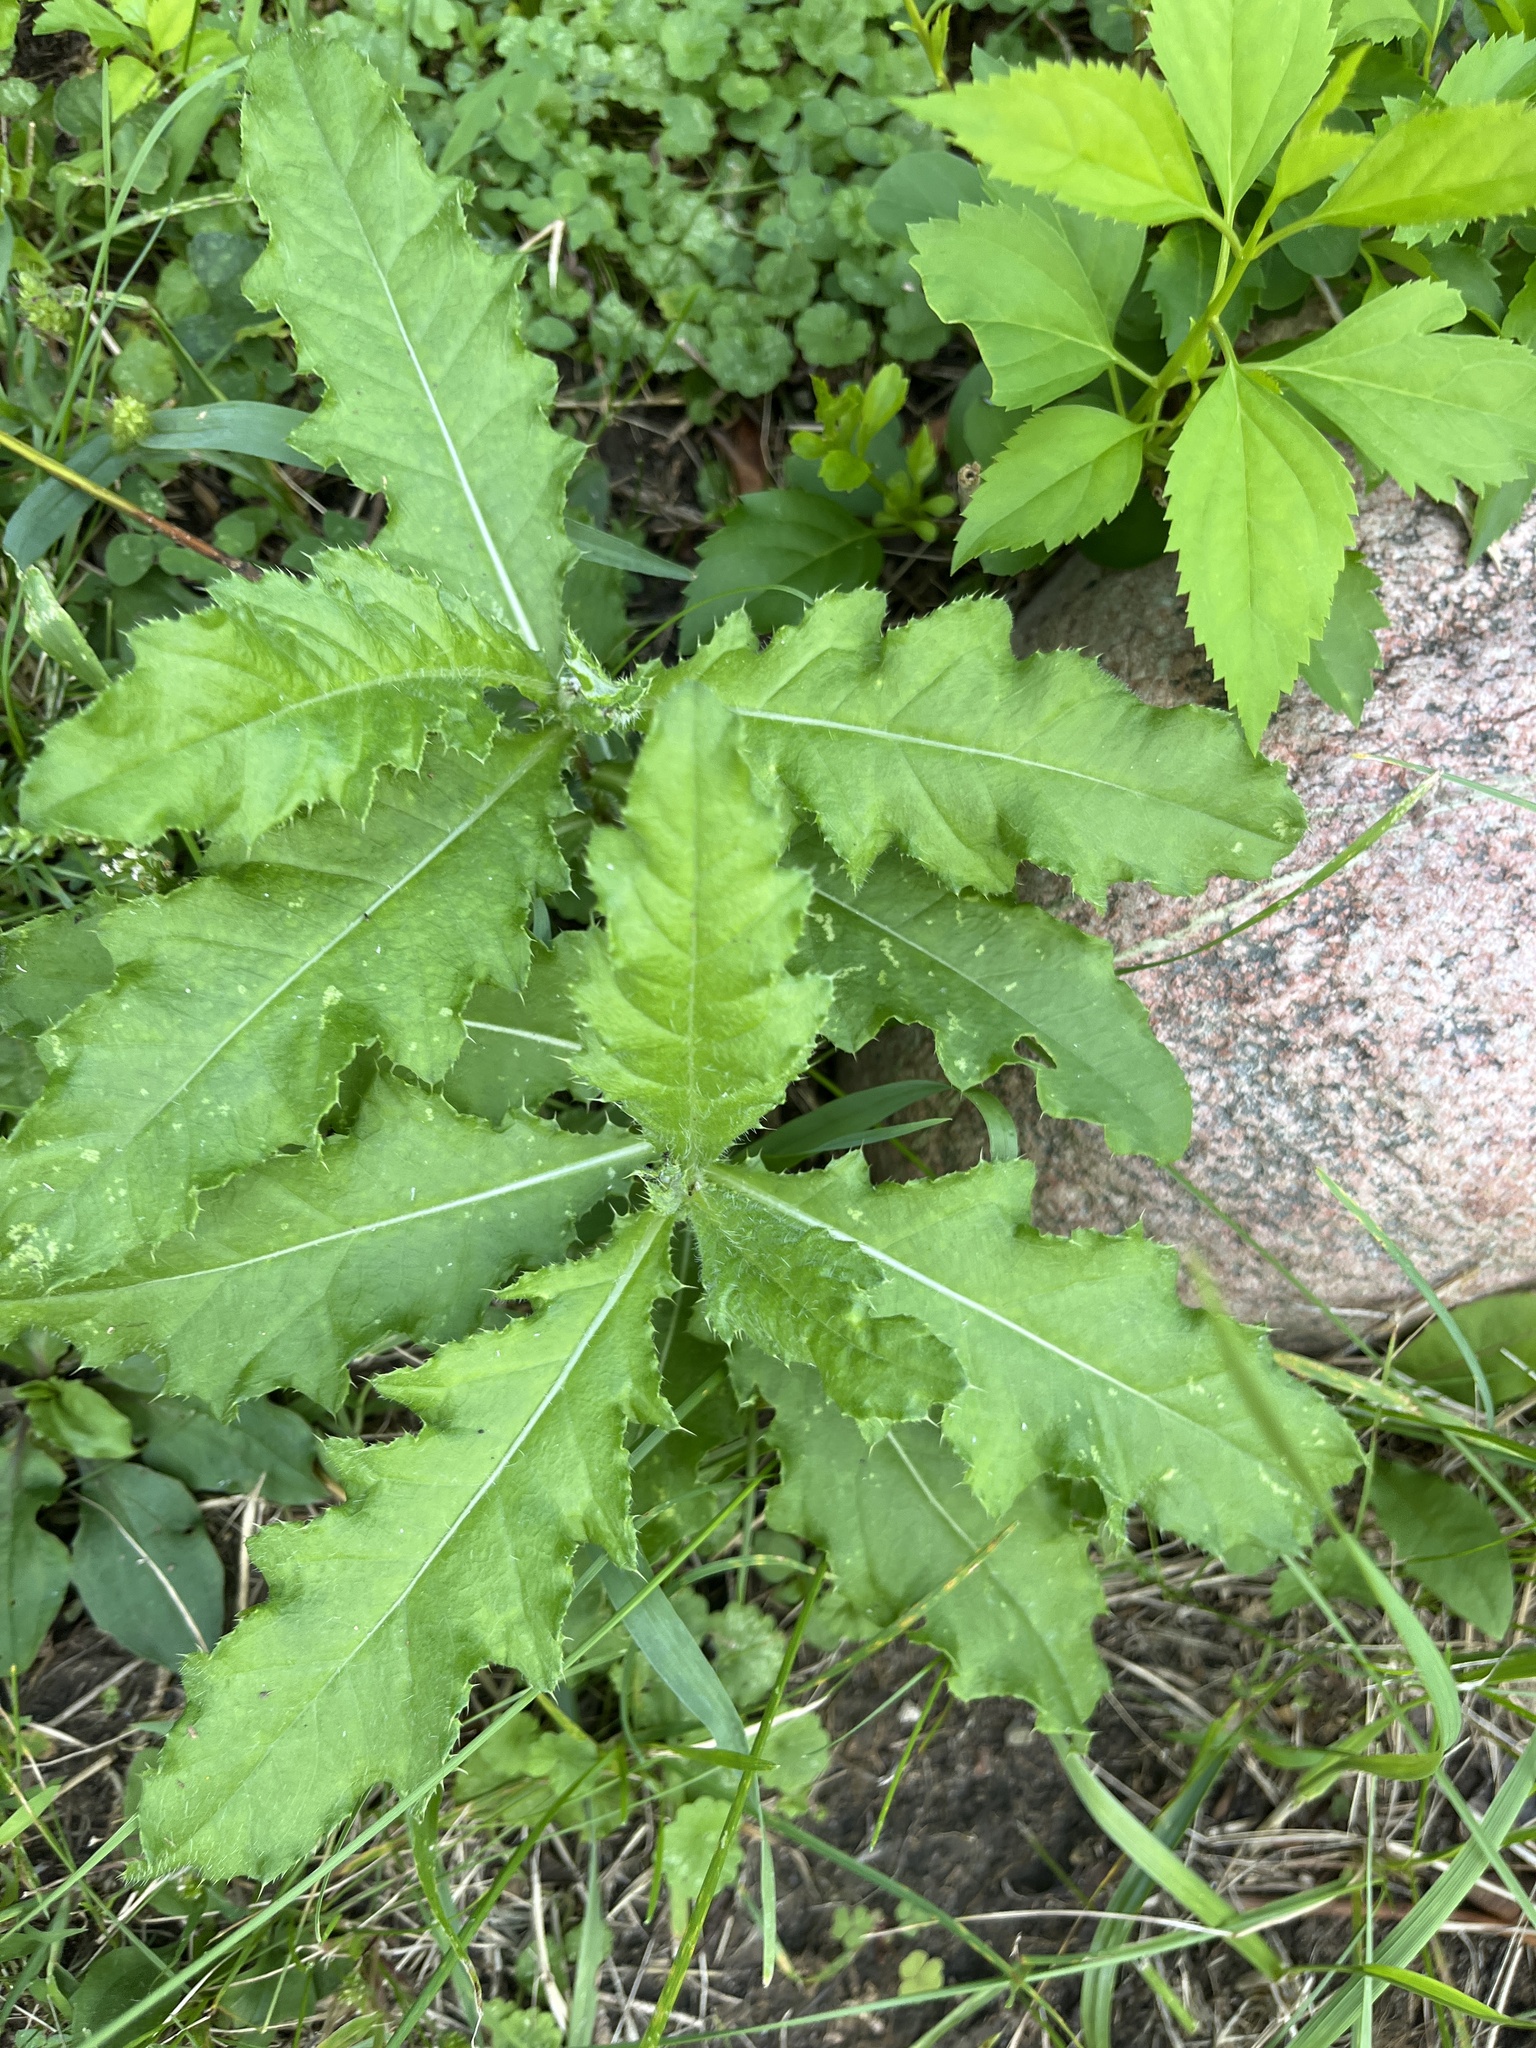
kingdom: Plantae
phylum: Tracheophyta
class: Magnoliopsida
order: Asterales
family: Asteraceae
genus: Cirsium
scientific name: Cirsium arvense
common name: Creeping thistle
